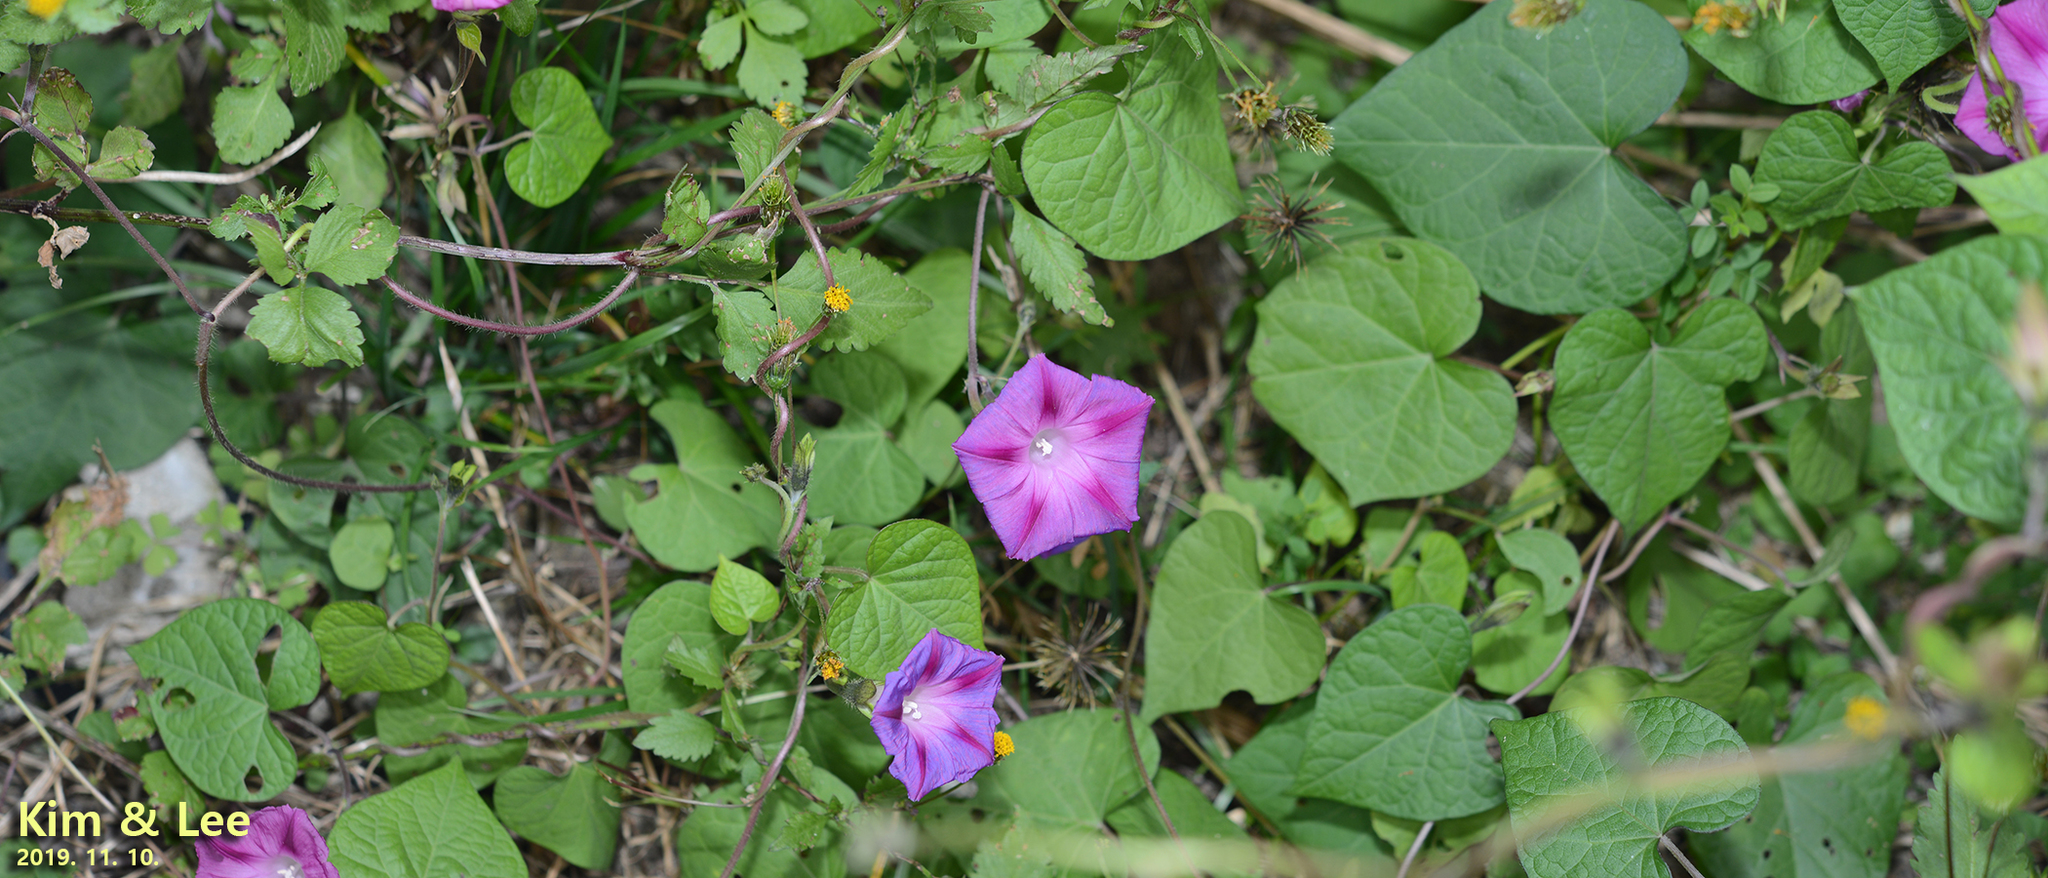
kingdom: Plantae
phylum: Tracheophyta
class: Magnoliopsida
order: Solanales
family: Convolvulaceae
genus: Ipomoea
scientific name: Ipomoea purpurea
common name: Common morning-glory
